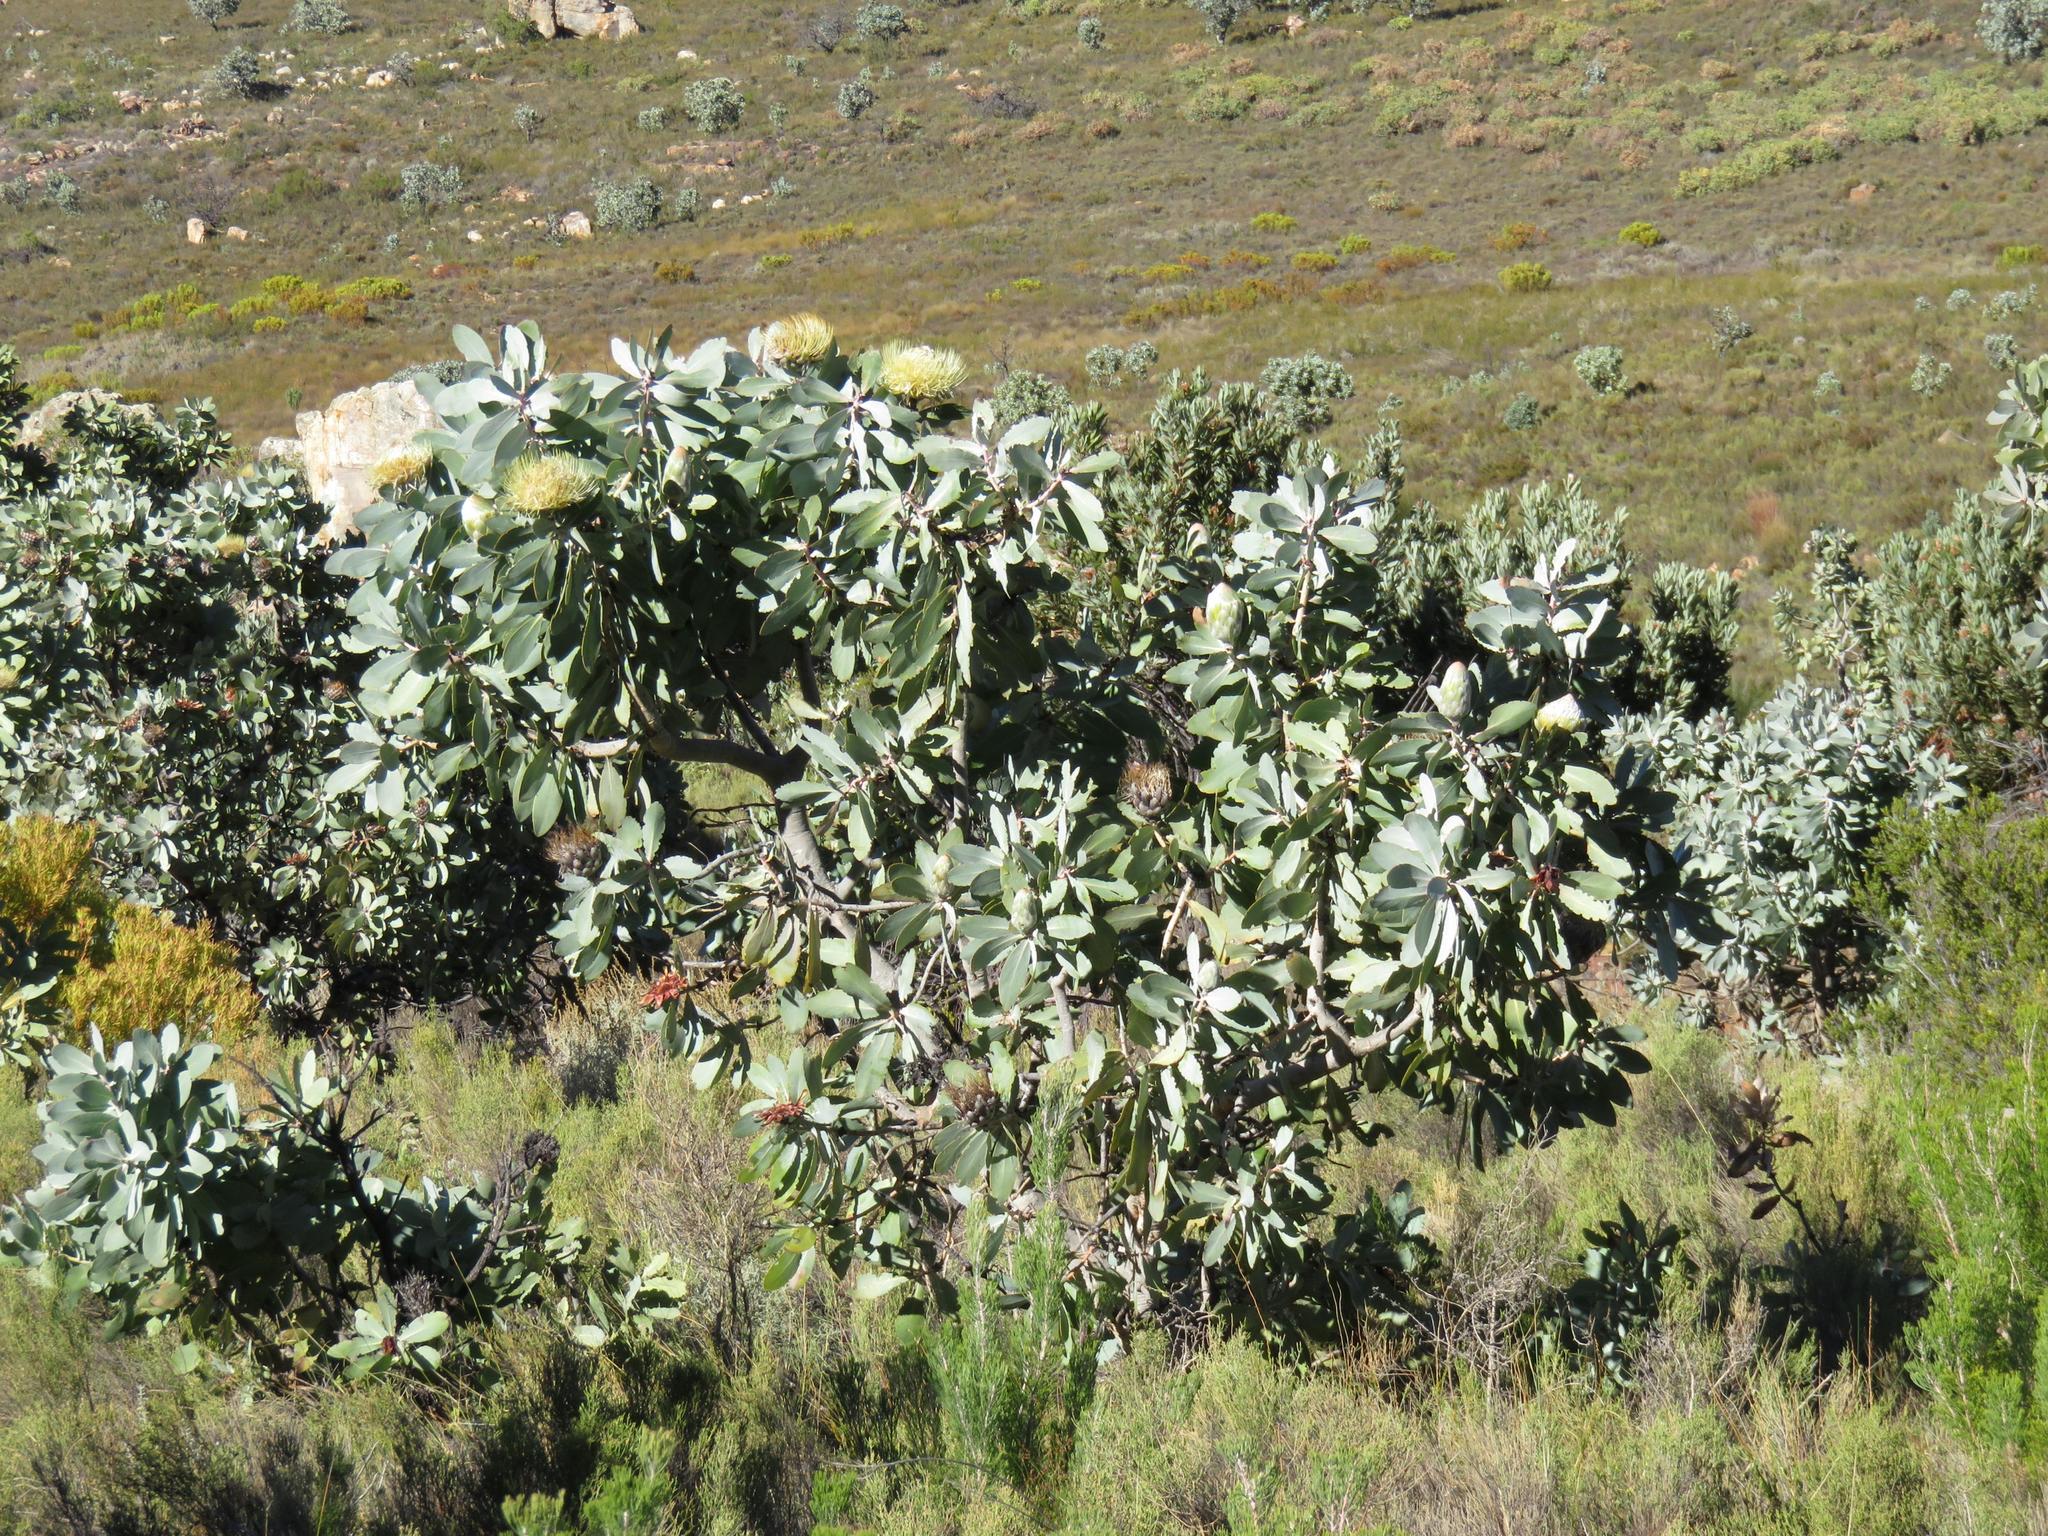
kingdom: Plantae
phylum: Tracheophyta
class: Magnoliopsida
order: Proteales
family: Proteaceae
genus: Protea
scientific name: Protea nitida
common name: Tree protea
